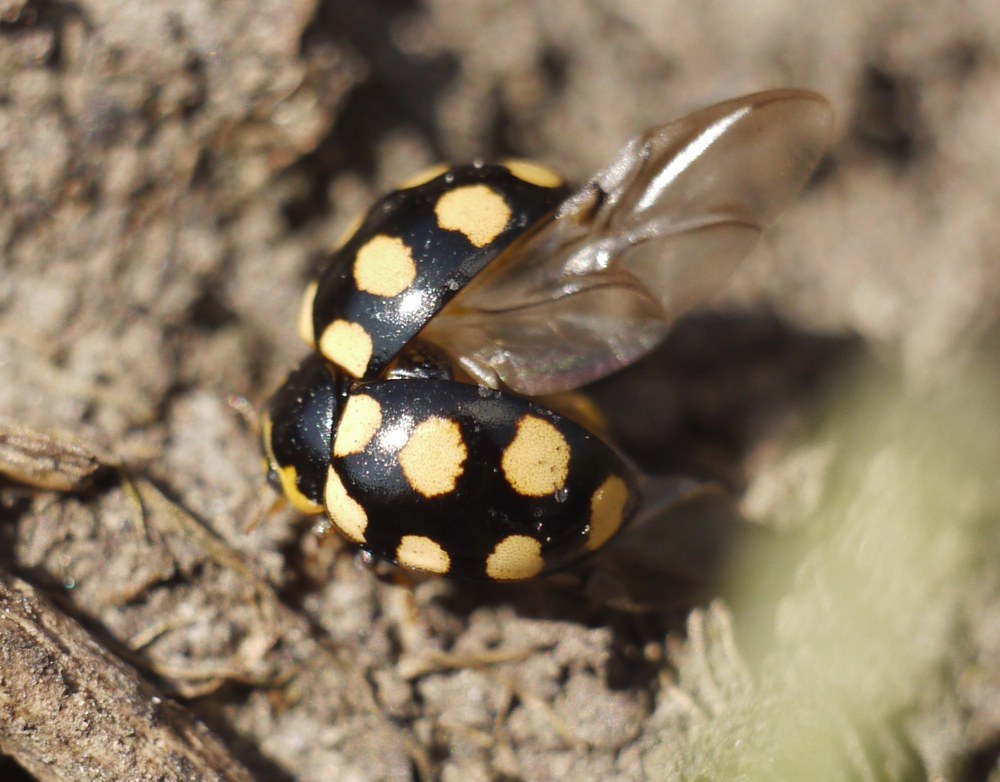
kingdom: Animalia
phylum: Arthropoda
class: Insecta
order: Coleoptera
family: Coccinellidae
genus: Coccinula
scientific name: Coccinula quatuordecimpustulata
